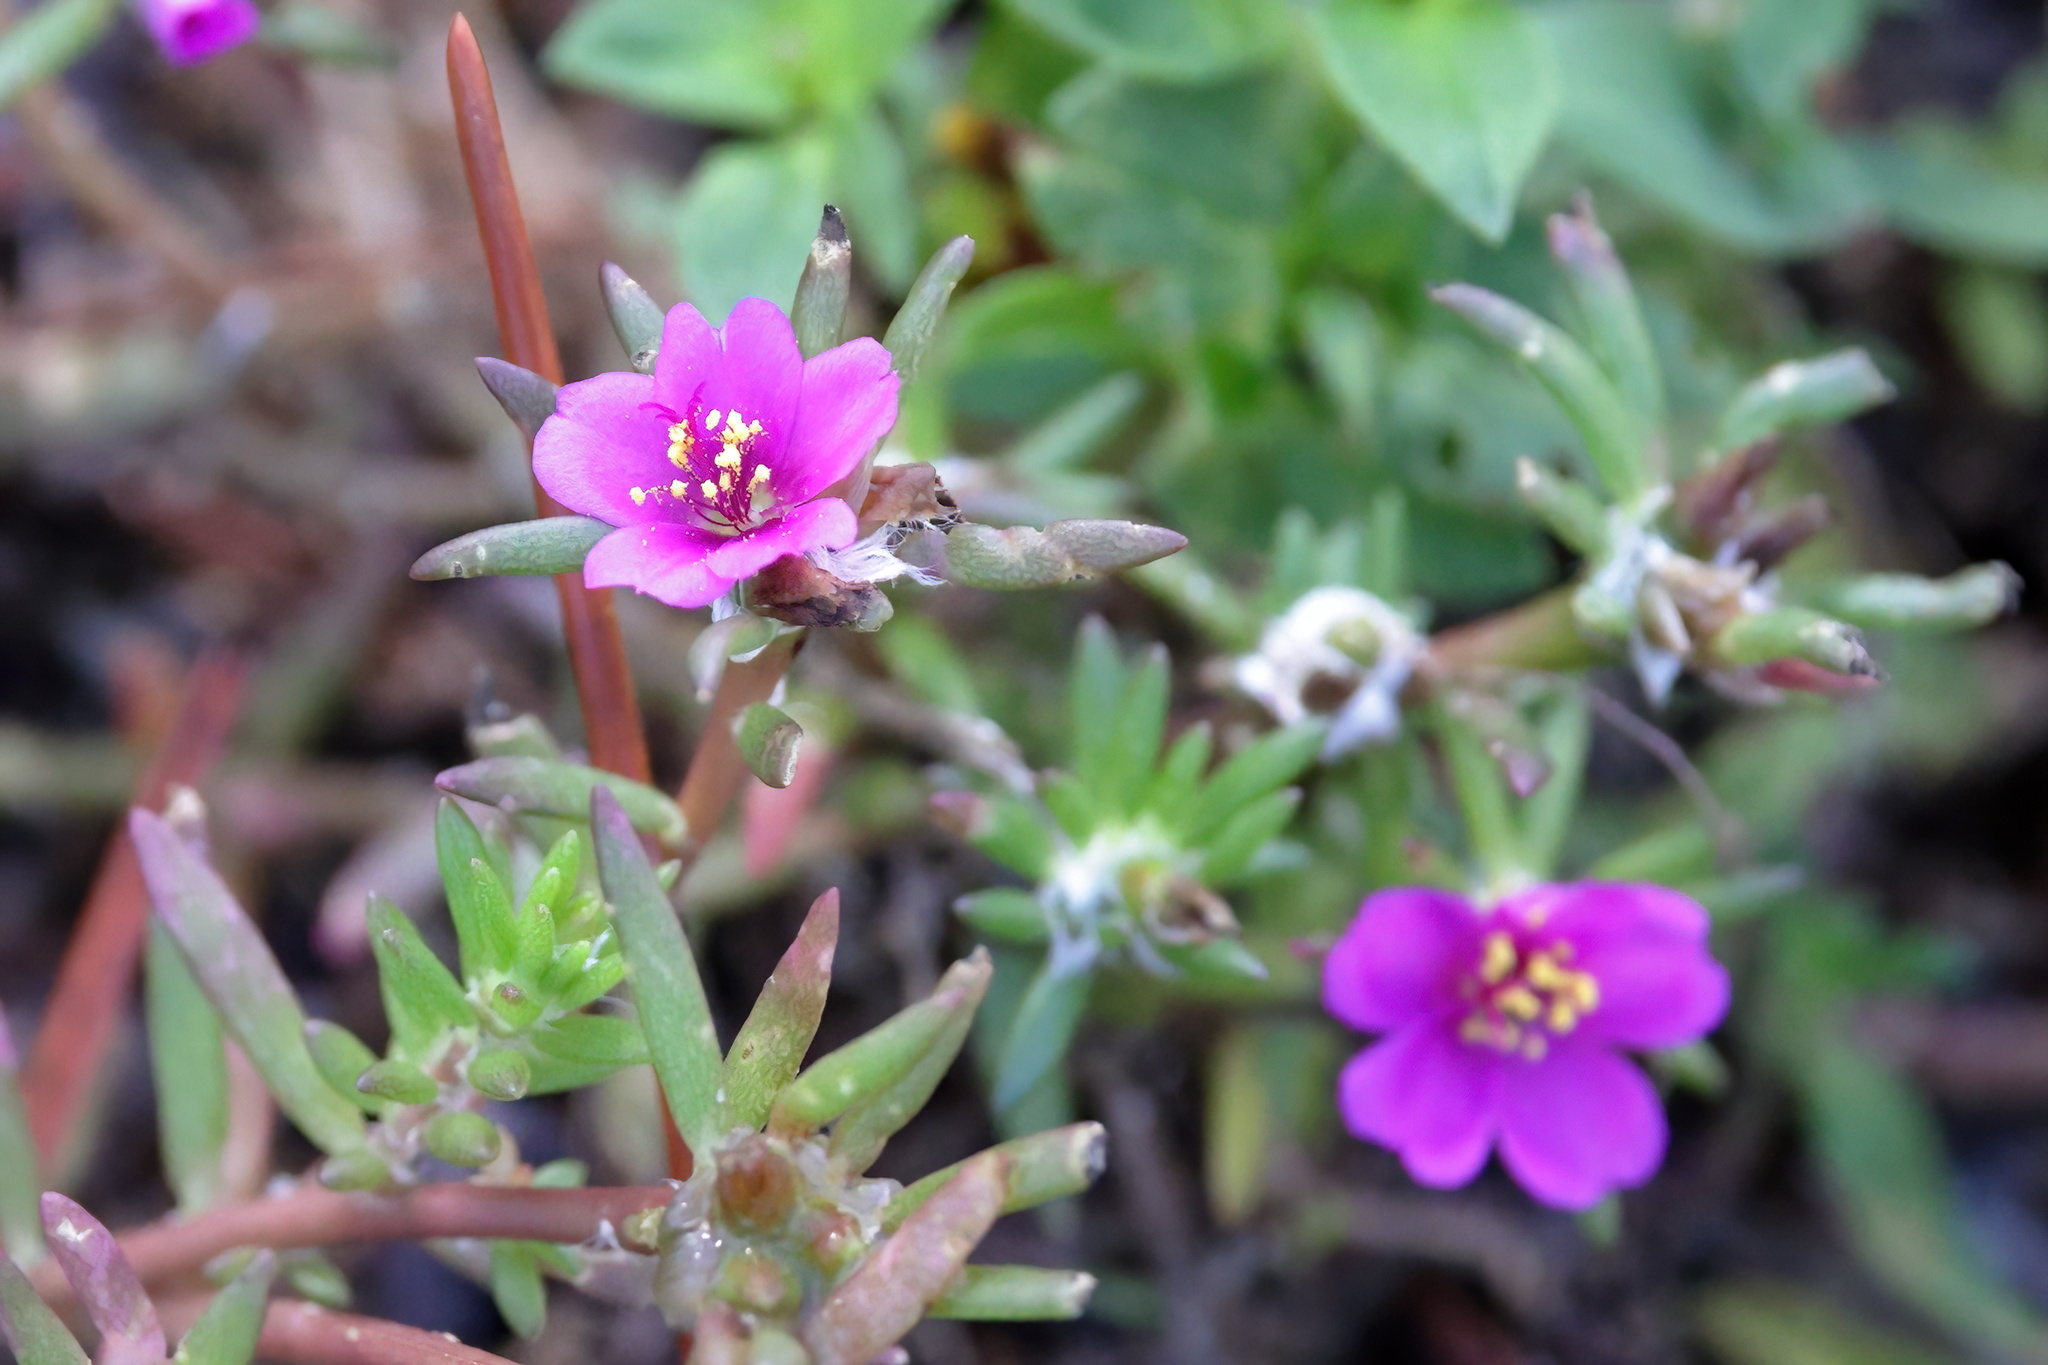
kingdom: Plantae
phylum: Tracheophyta
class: Magnoliopsida
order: Caryophyllales
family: Portulacaceae
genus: Portulaca
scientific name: Portulaca pilosa
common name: Kiss me quick
